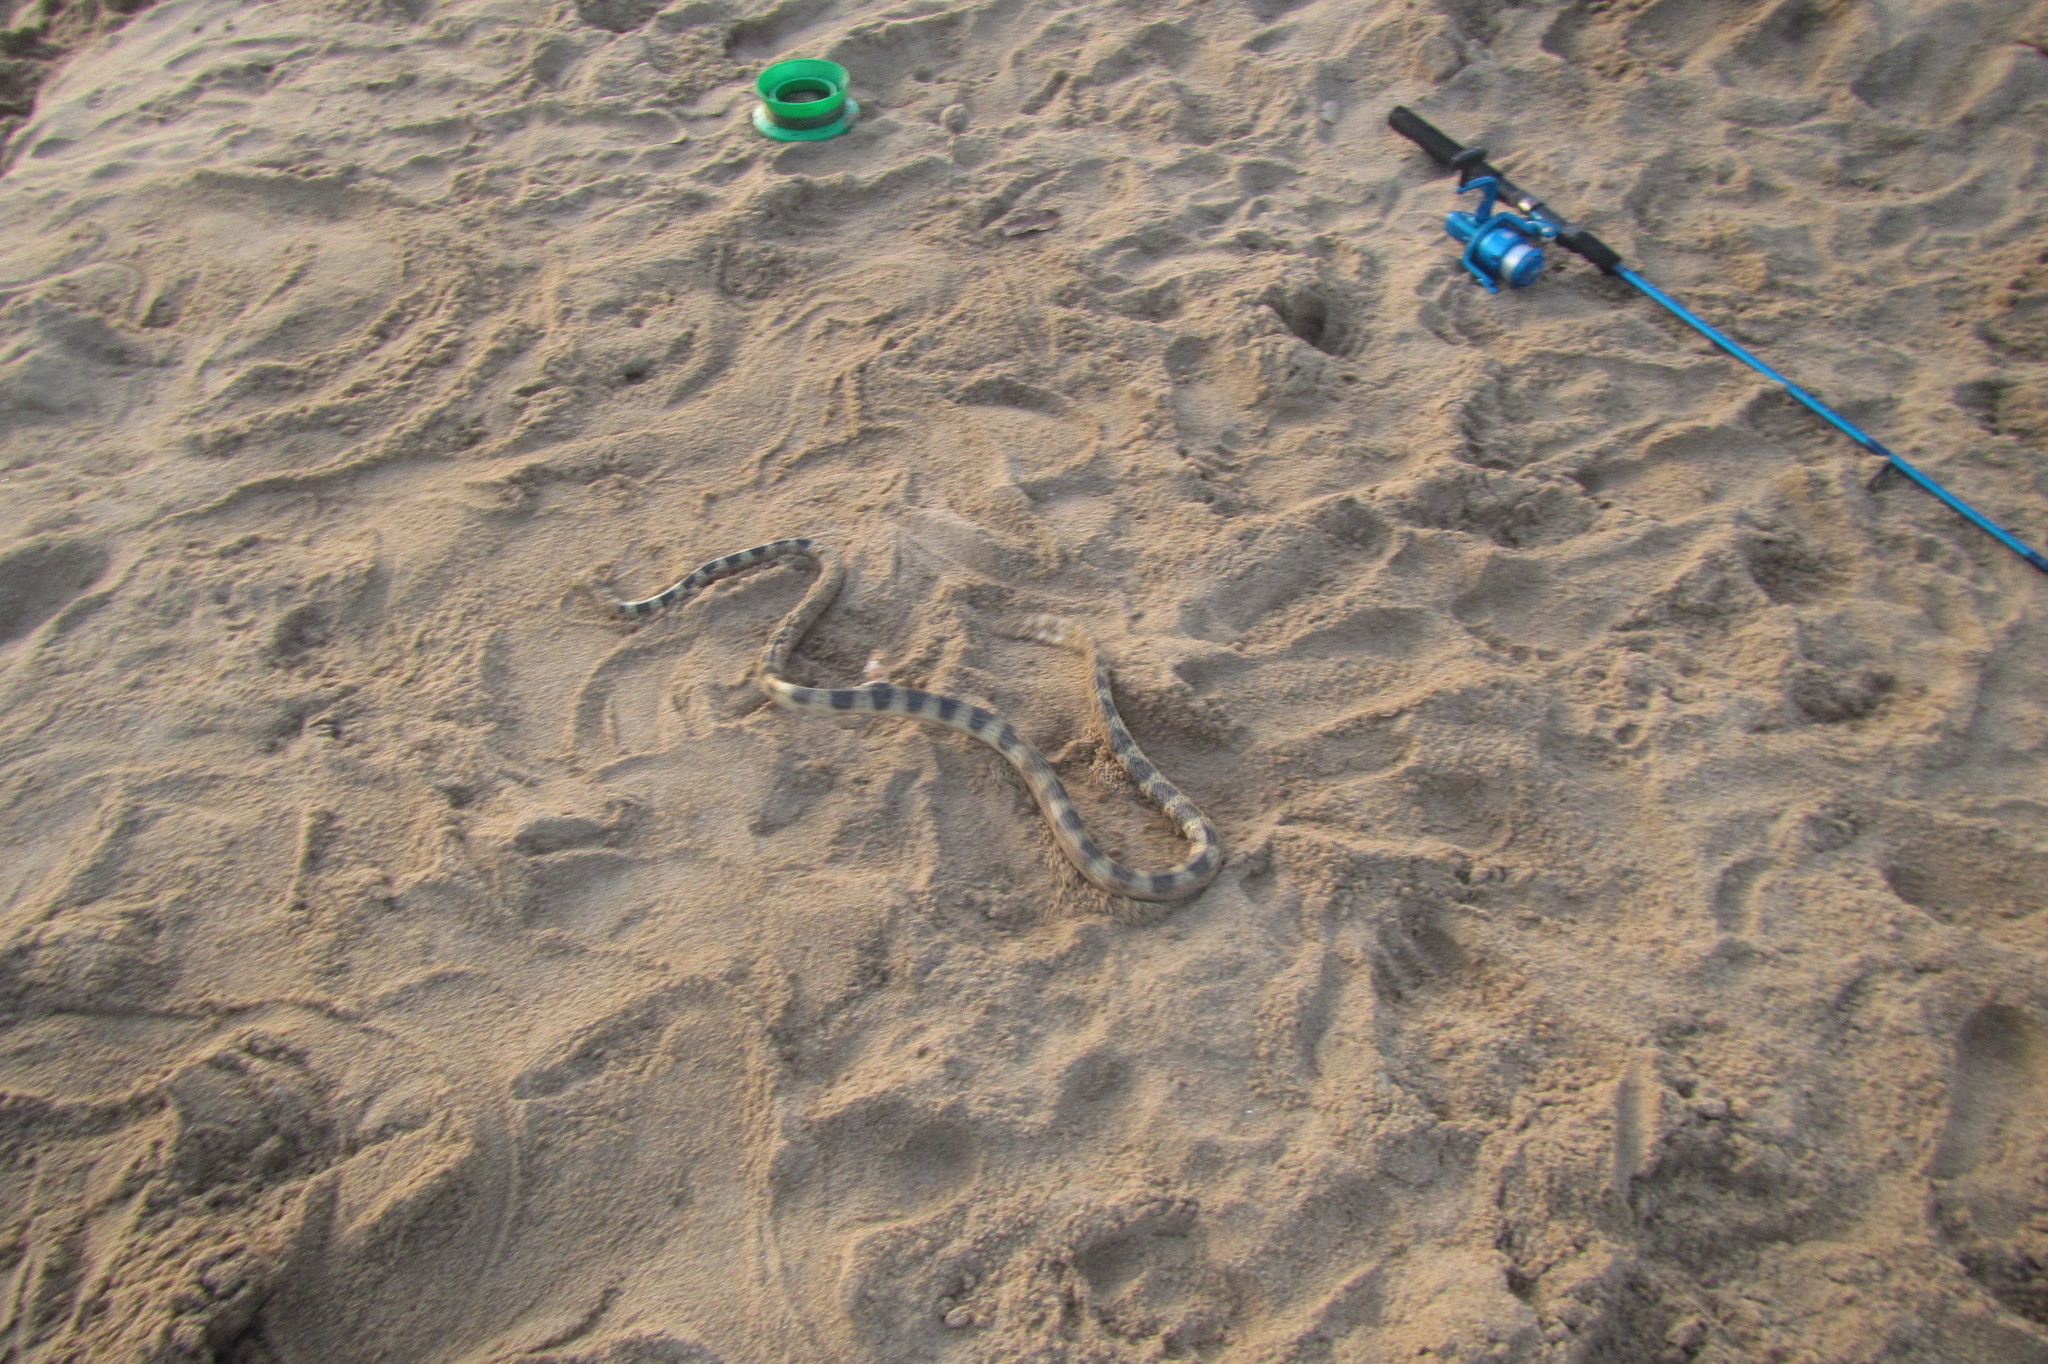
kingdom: Animalia
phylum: Chordata
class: Squamata
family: Elapidae
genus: Hydrophis
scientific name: Hydrophis elegans
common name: Bar-bellied sea snake
